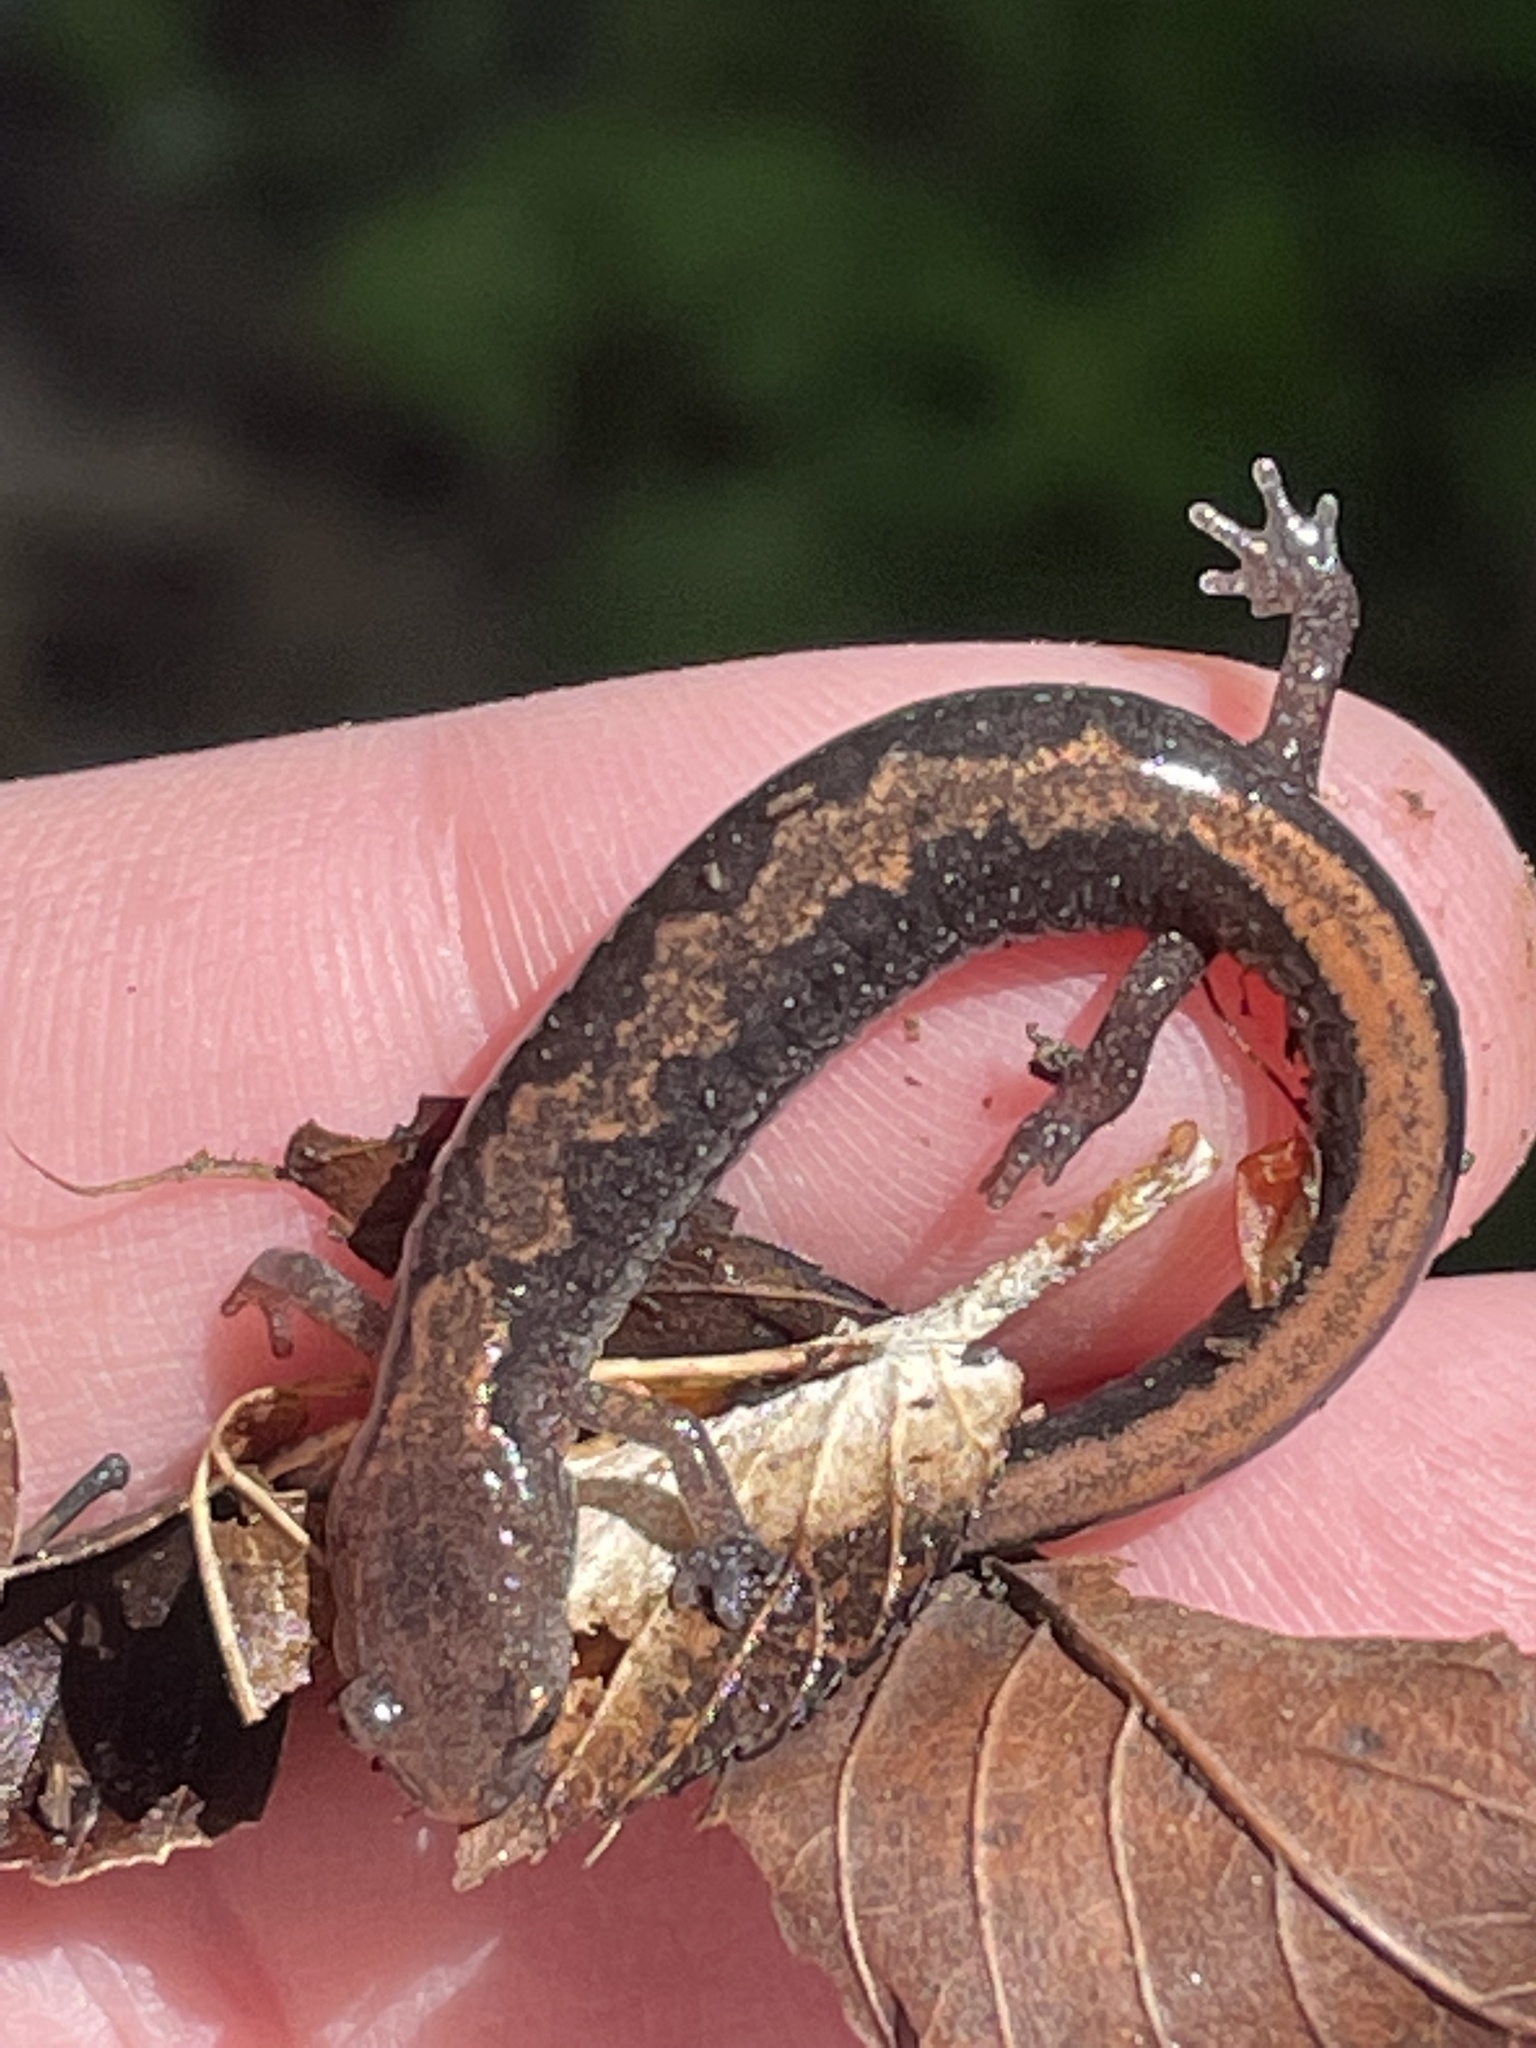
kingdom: Animalia
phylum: Chordata
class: Amphibia
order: Caudata
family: Plethodontidae
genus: Plethodon
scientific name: Plethodon dorsalis
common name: Northern zigzag salamander
